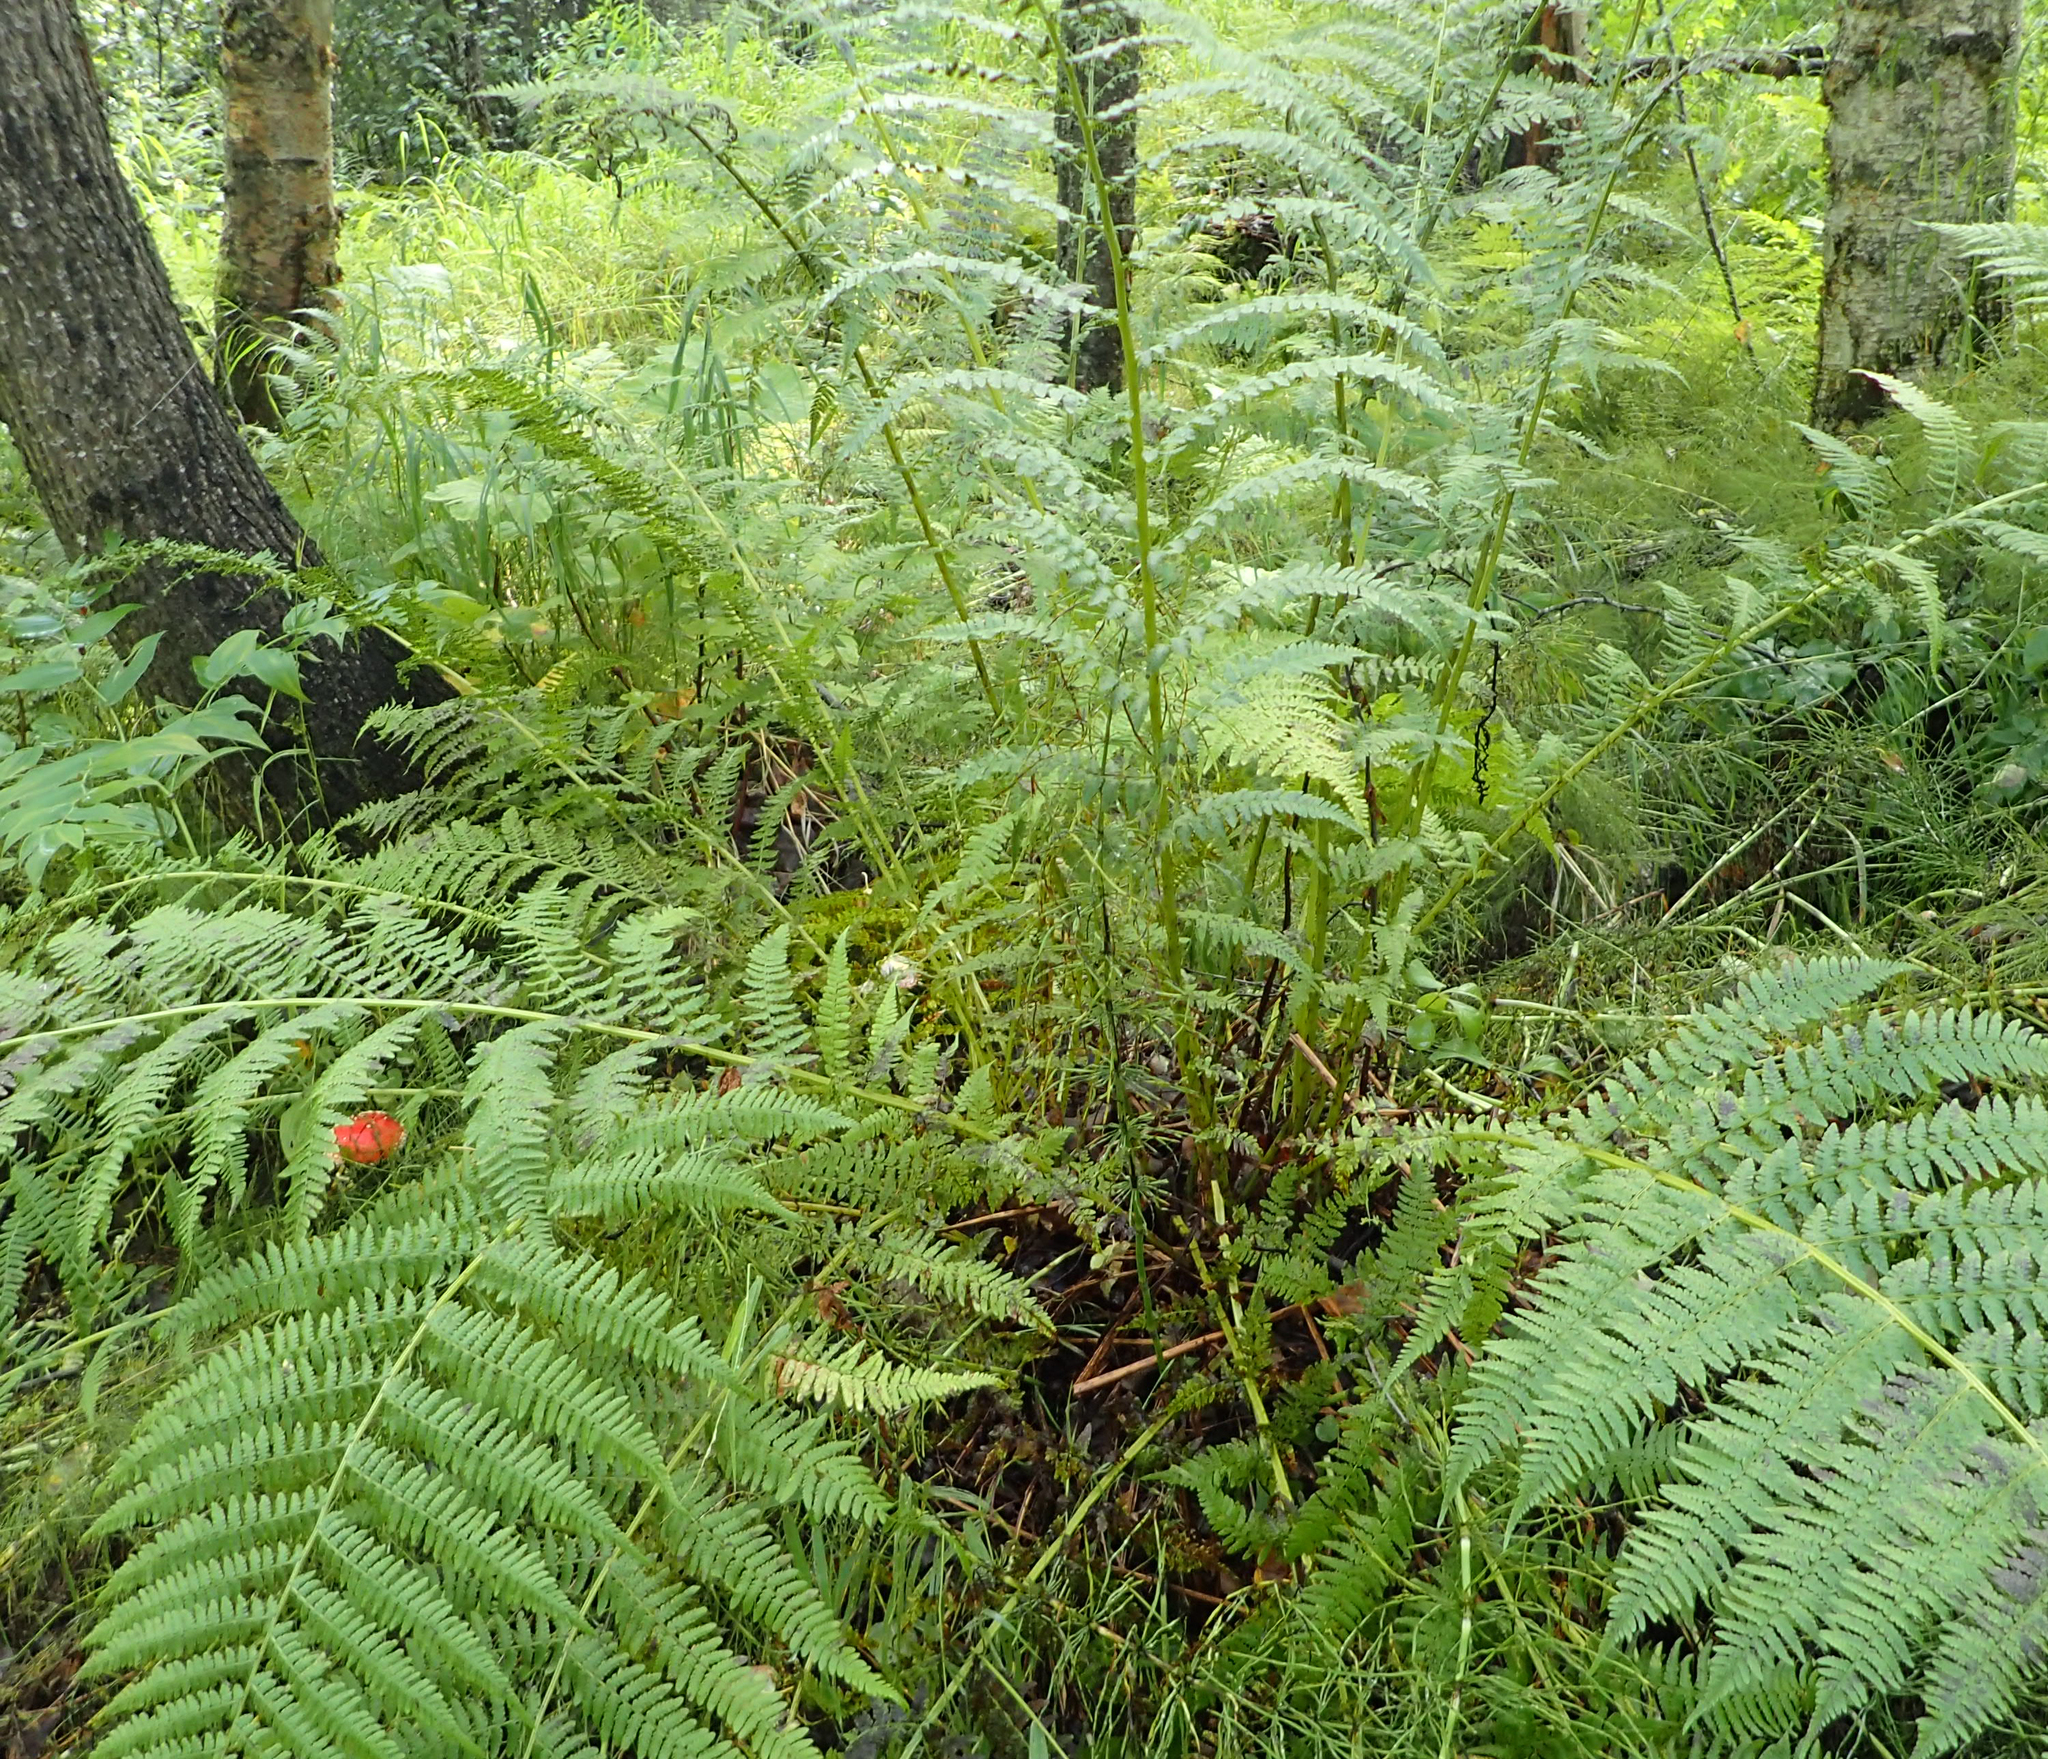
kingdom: Plantae
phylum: Tracheophyta
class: Polypodiopsida
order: Polypodiales
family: Athyriaceae
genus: Athyrium
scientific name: Athyrium cyclosorum
